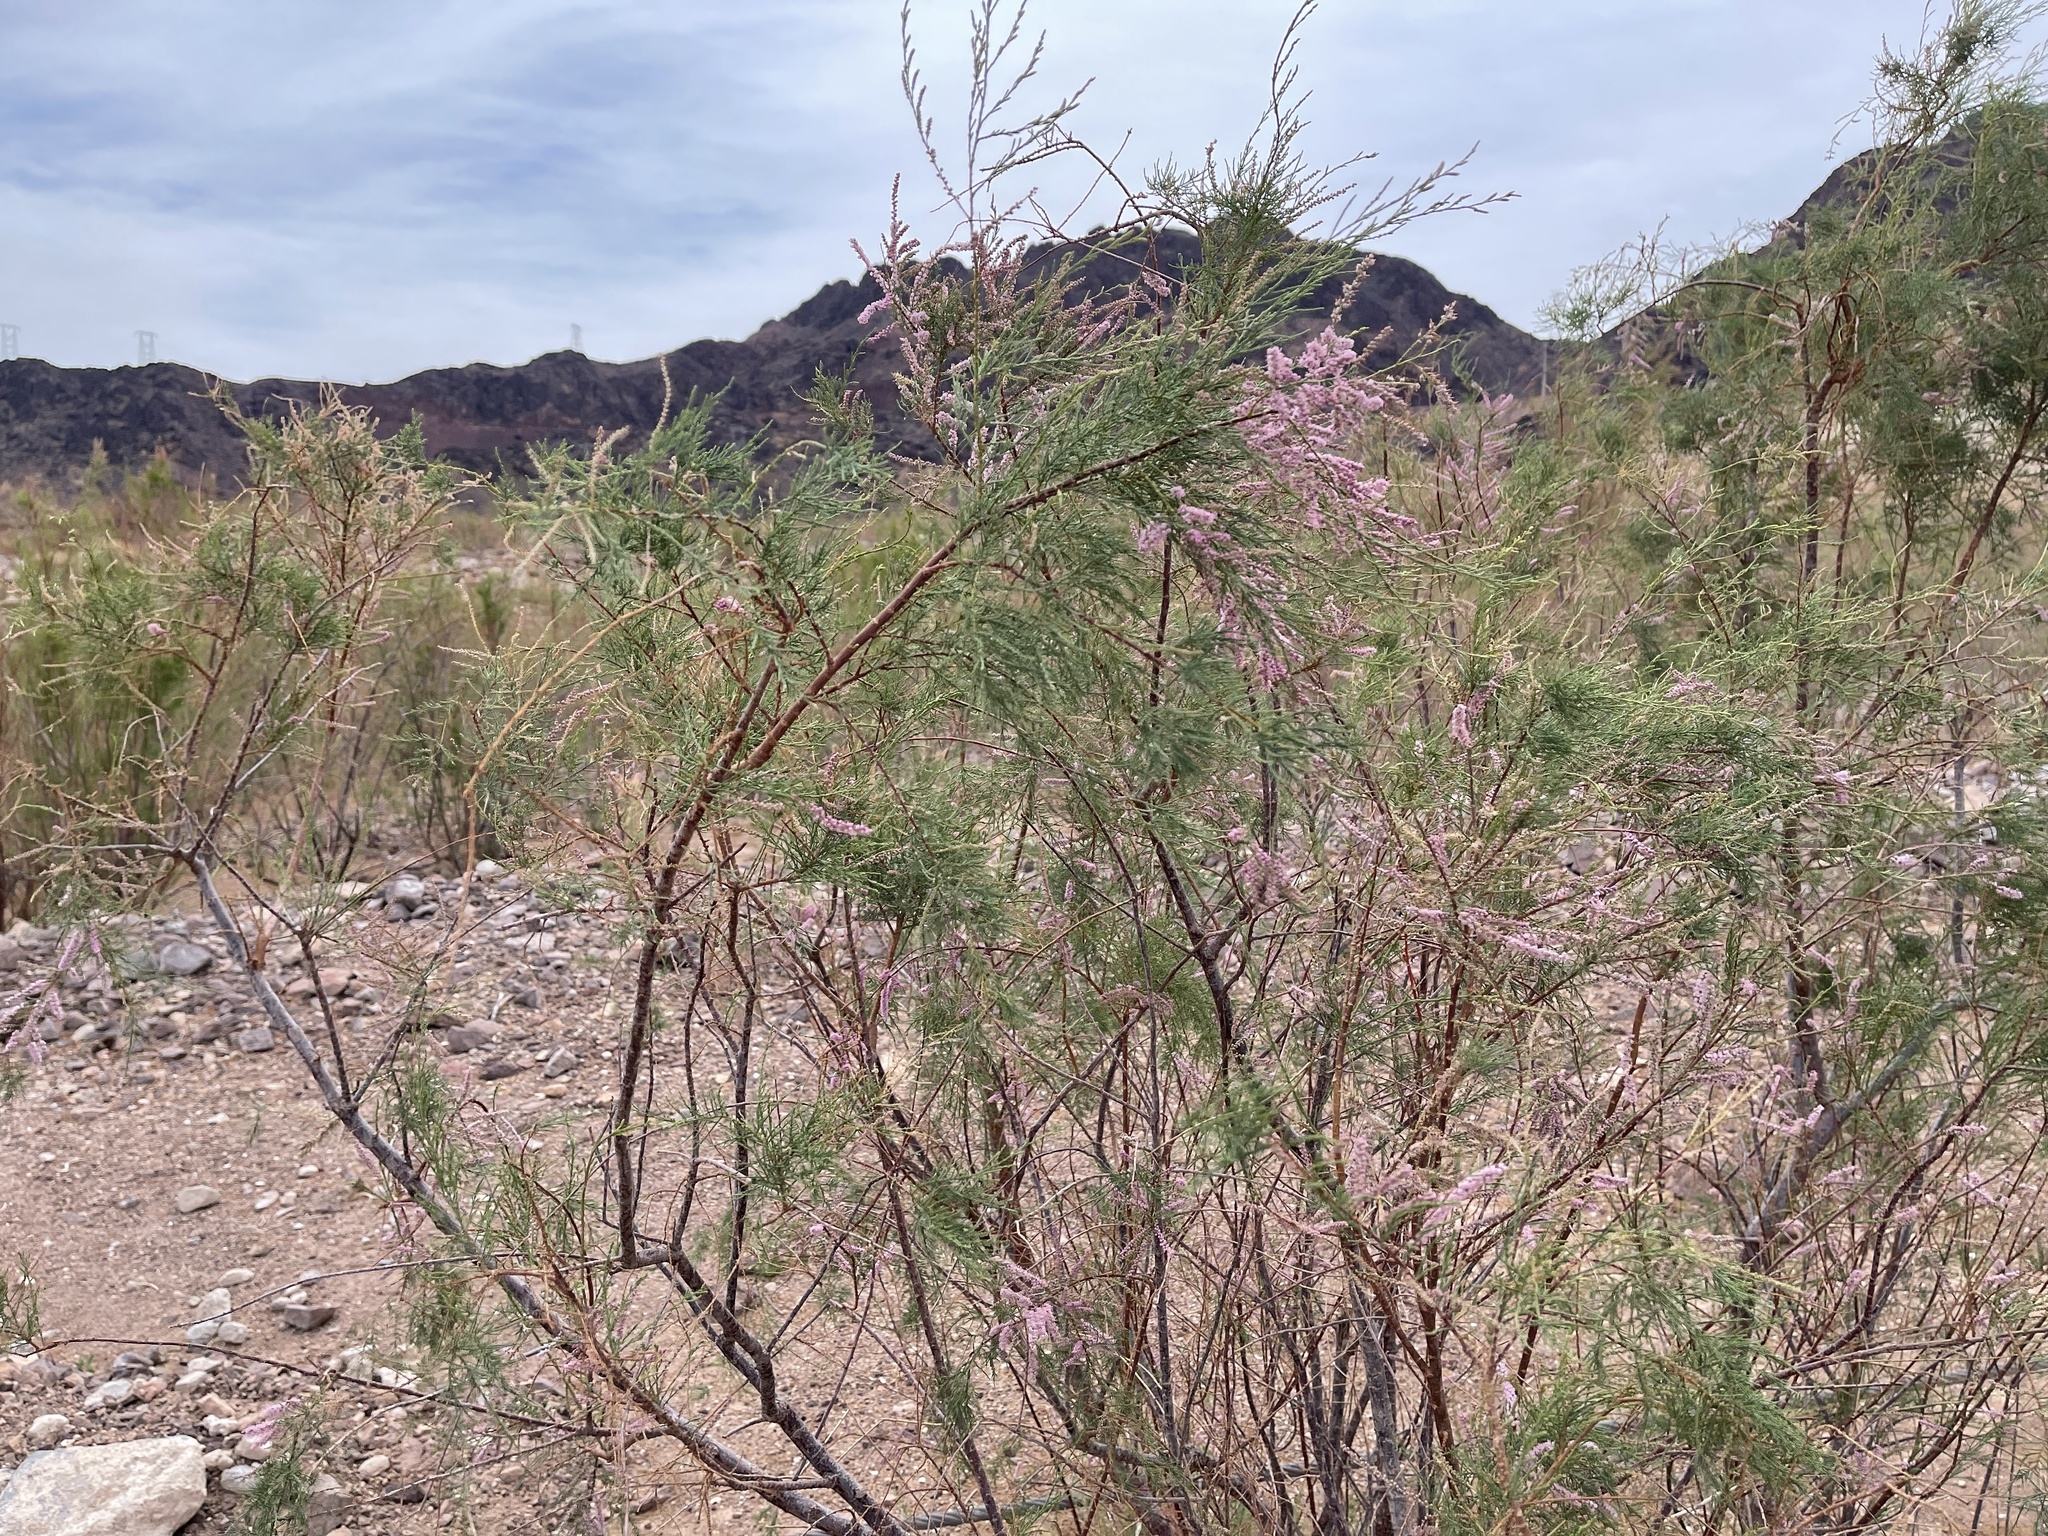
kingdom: Plantae
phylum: Tracheophyta
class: Magnoliopsida
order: Caryophyllales
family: Tamaricaceae
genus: Tamarix
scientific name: Tamarix ramosissima
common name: Pink tamarisk
